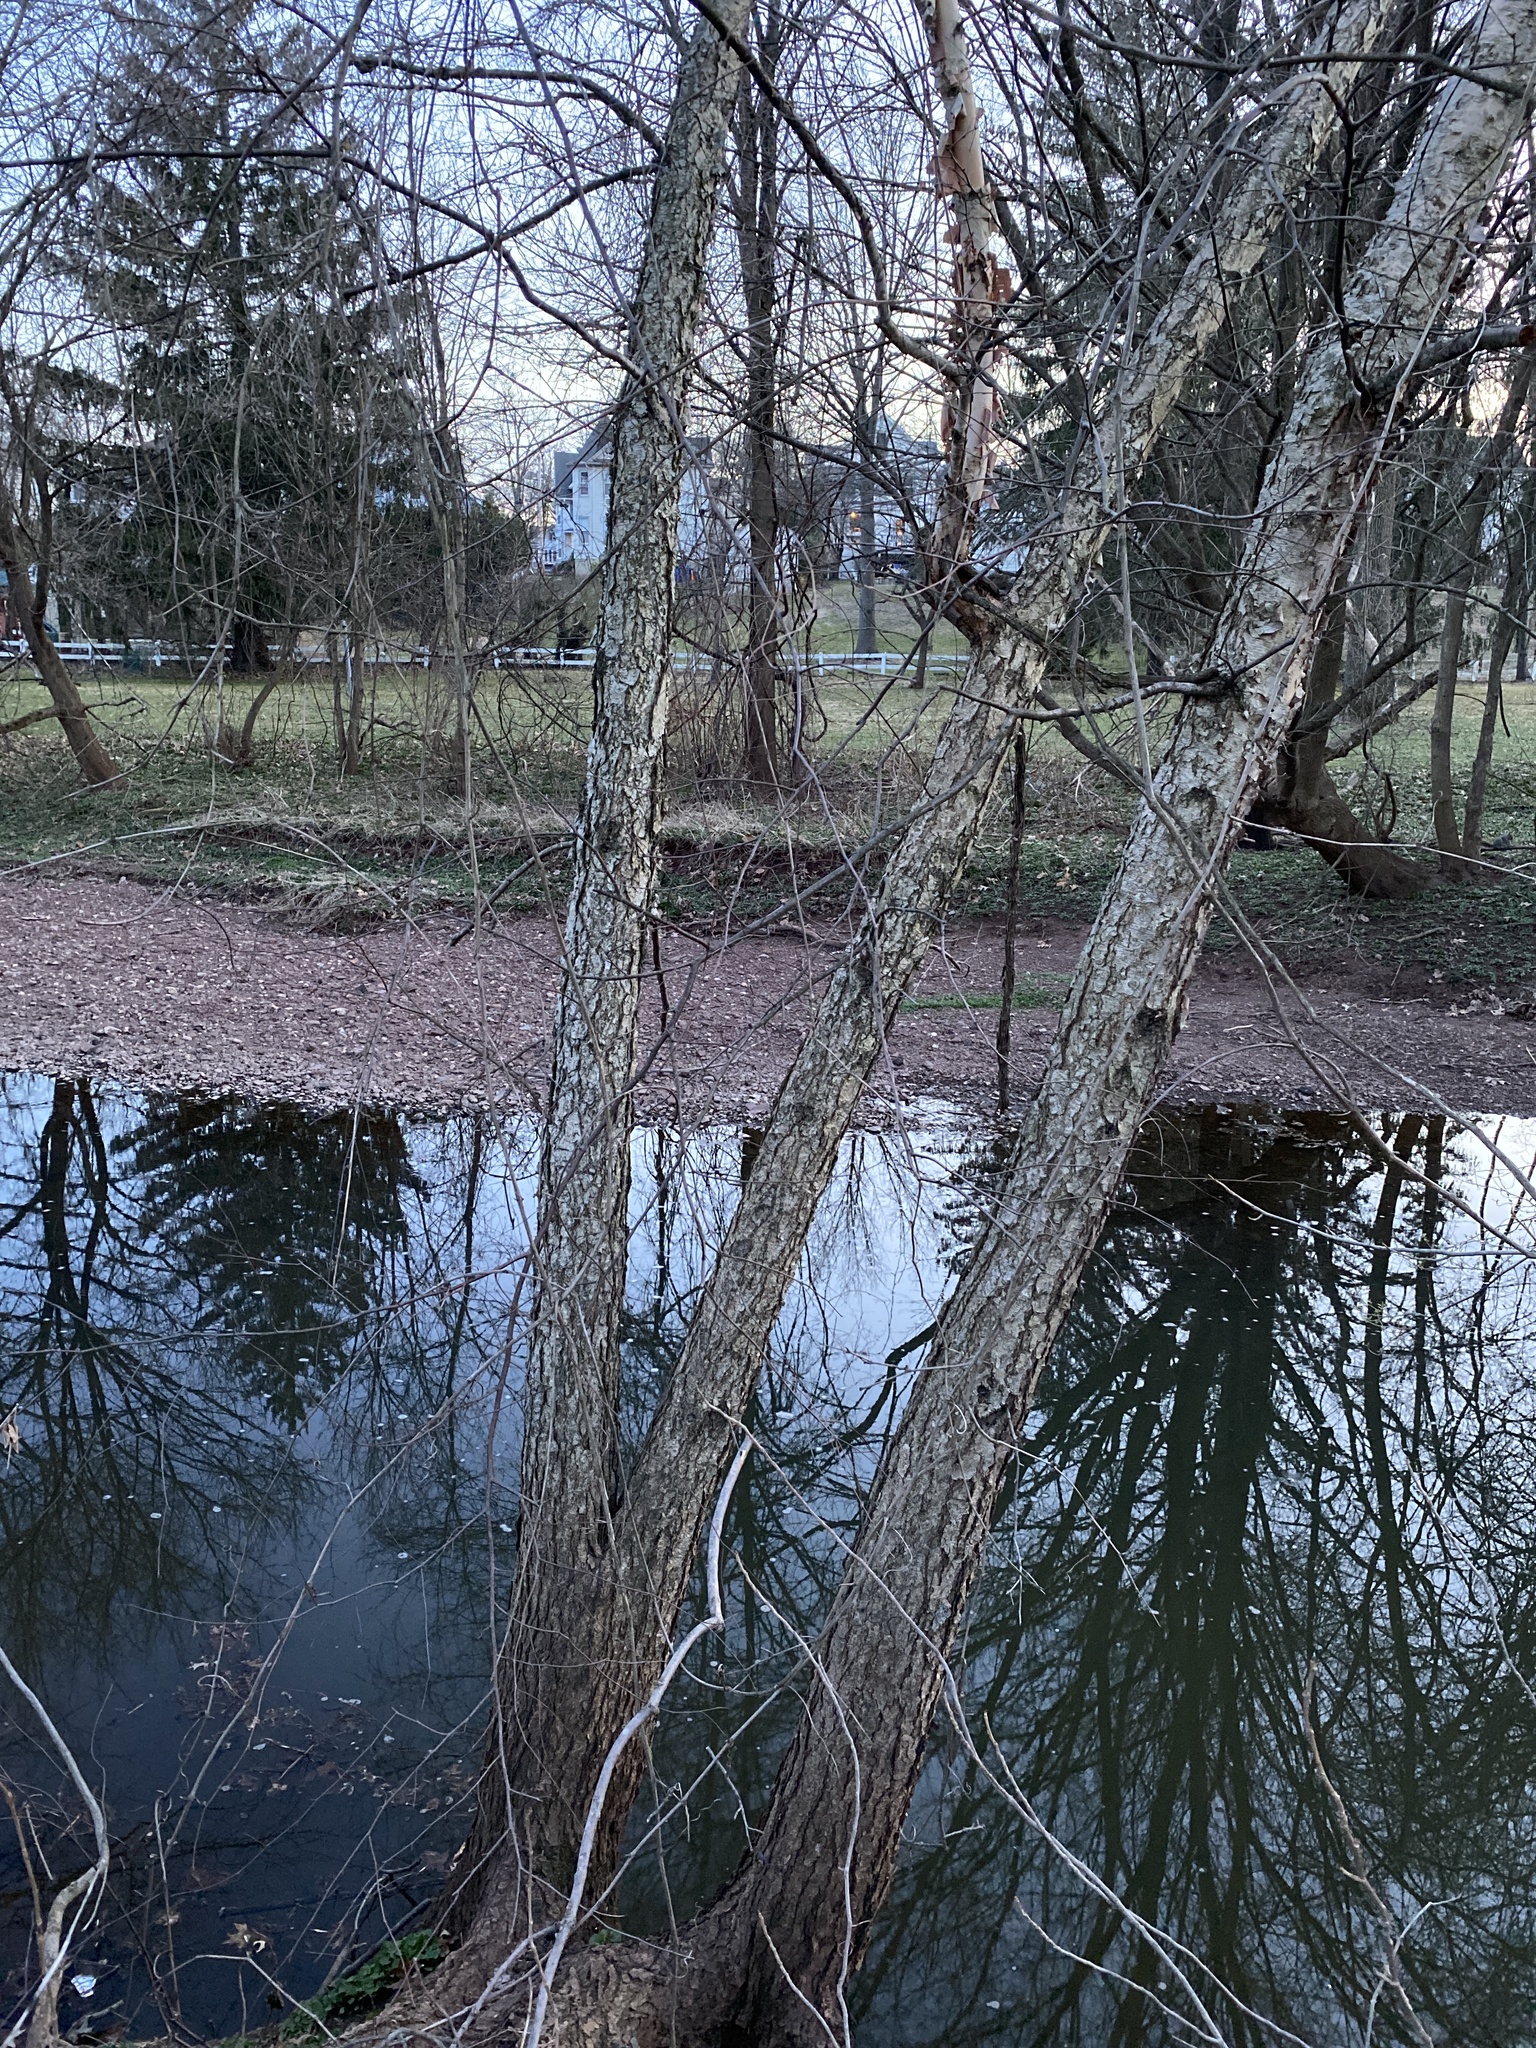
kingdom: Plantae
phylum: Tracheophyta
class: Magnoliopsida
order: Fagales
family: Betulaceae
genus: Betula
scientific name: Betula nigra
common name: Black birch
